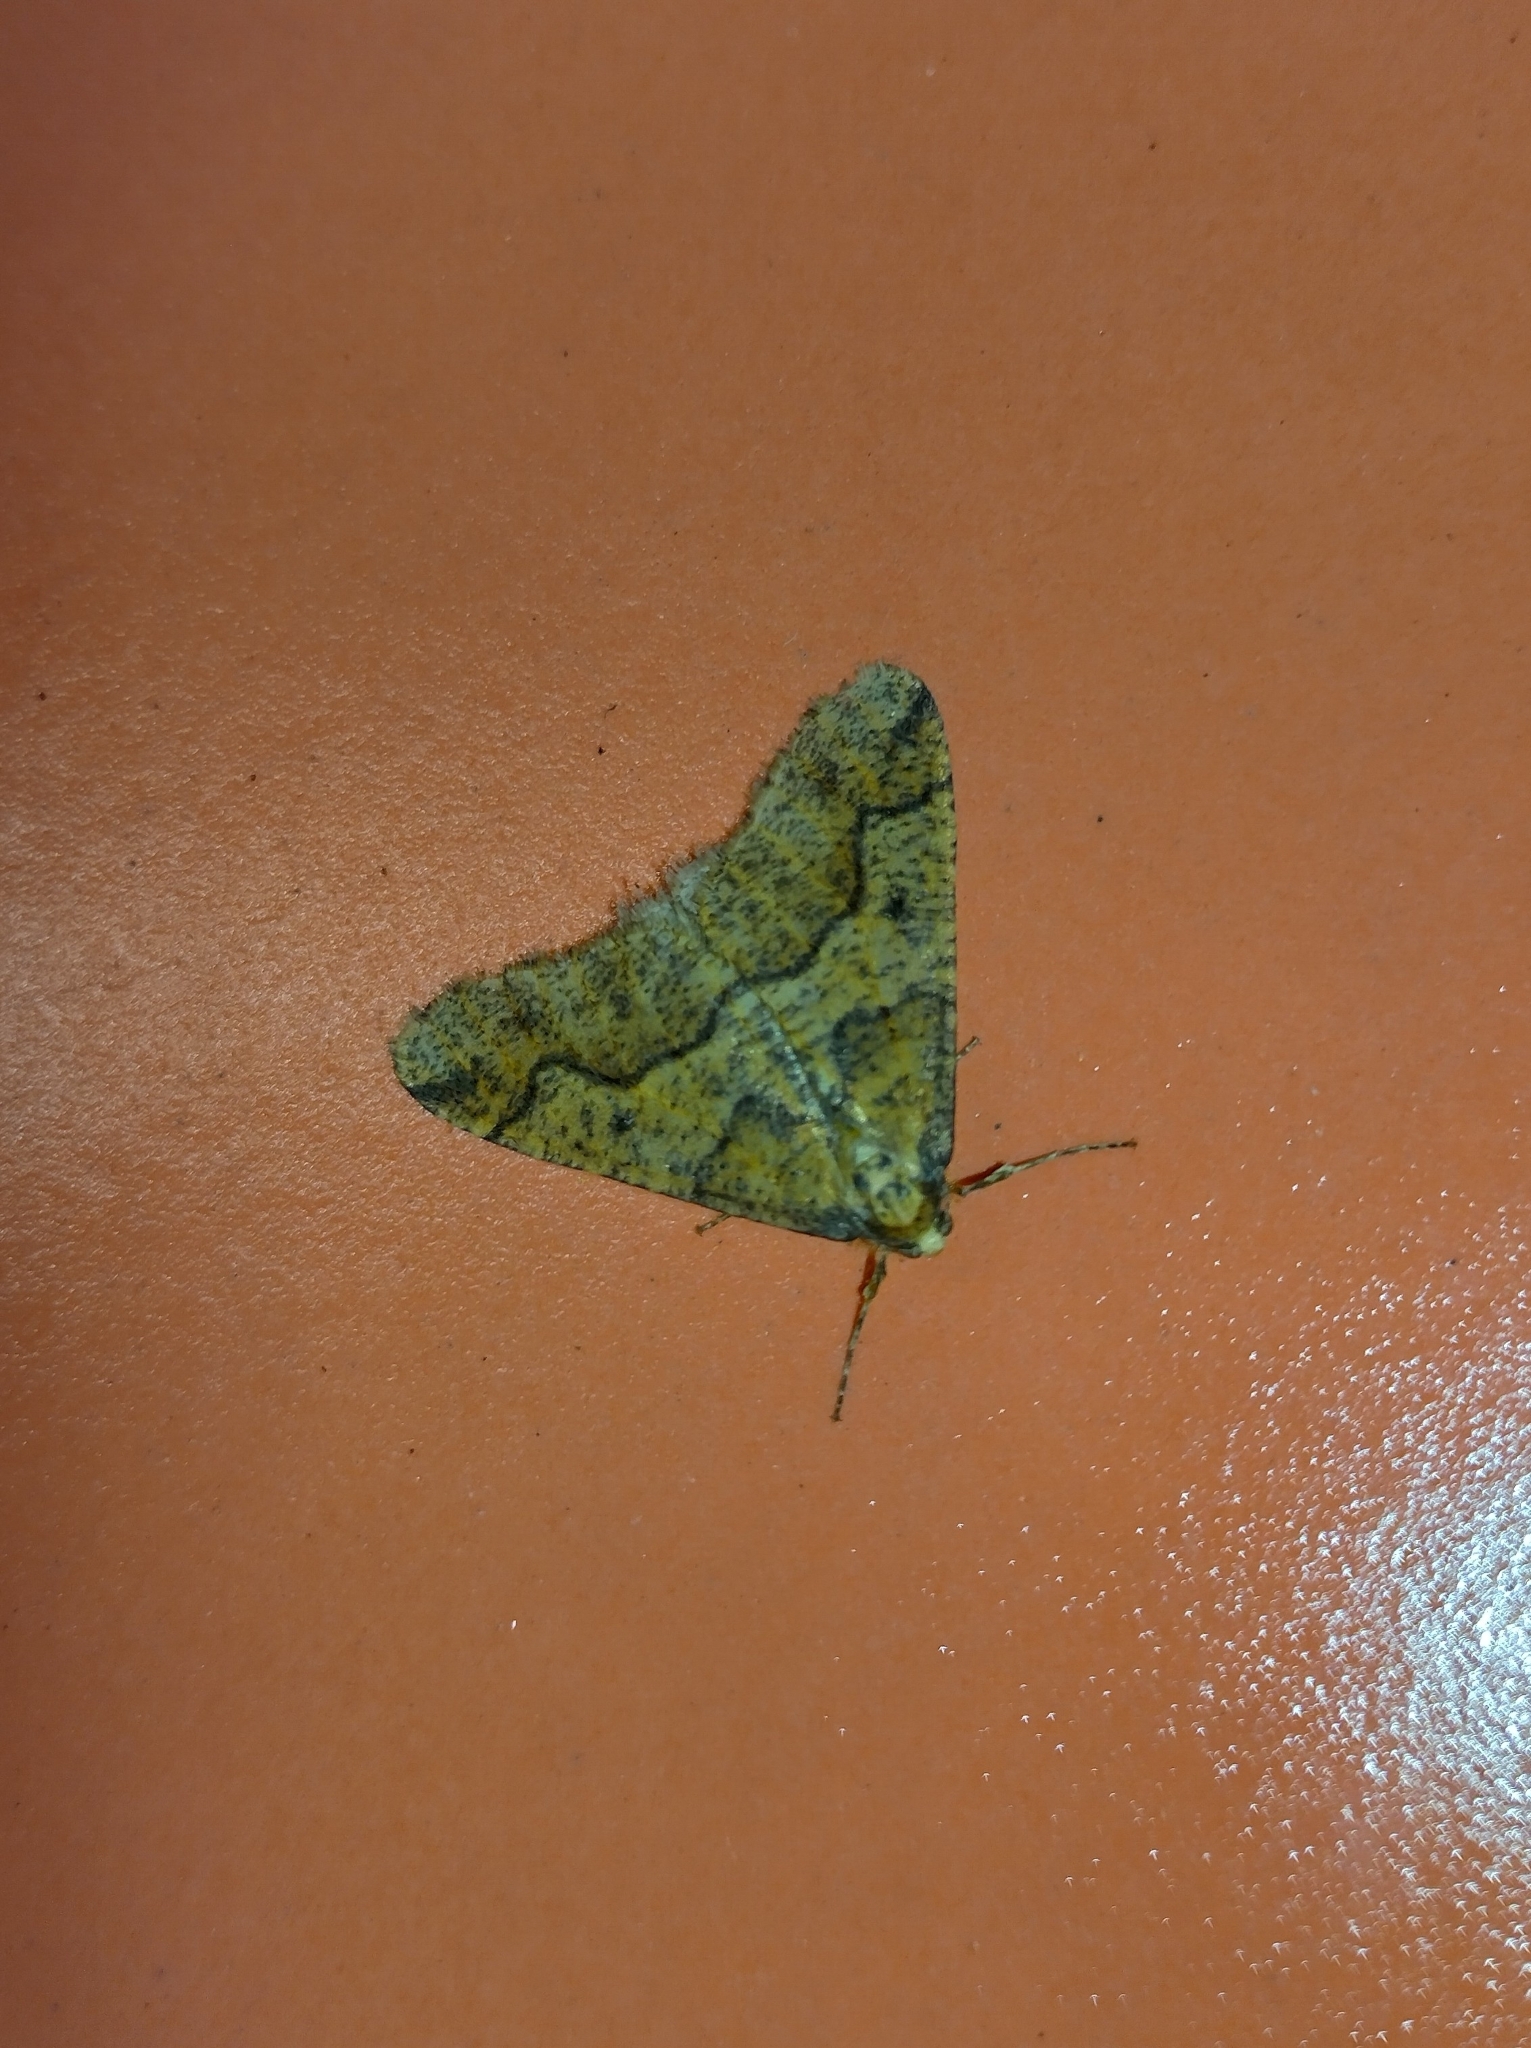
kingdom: Animalia
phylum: Arthropoda
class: Insecta
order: Lepidoptera
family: Geometridae
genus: Erannis
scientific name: Erannis defoliaria
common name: Mottled umber
